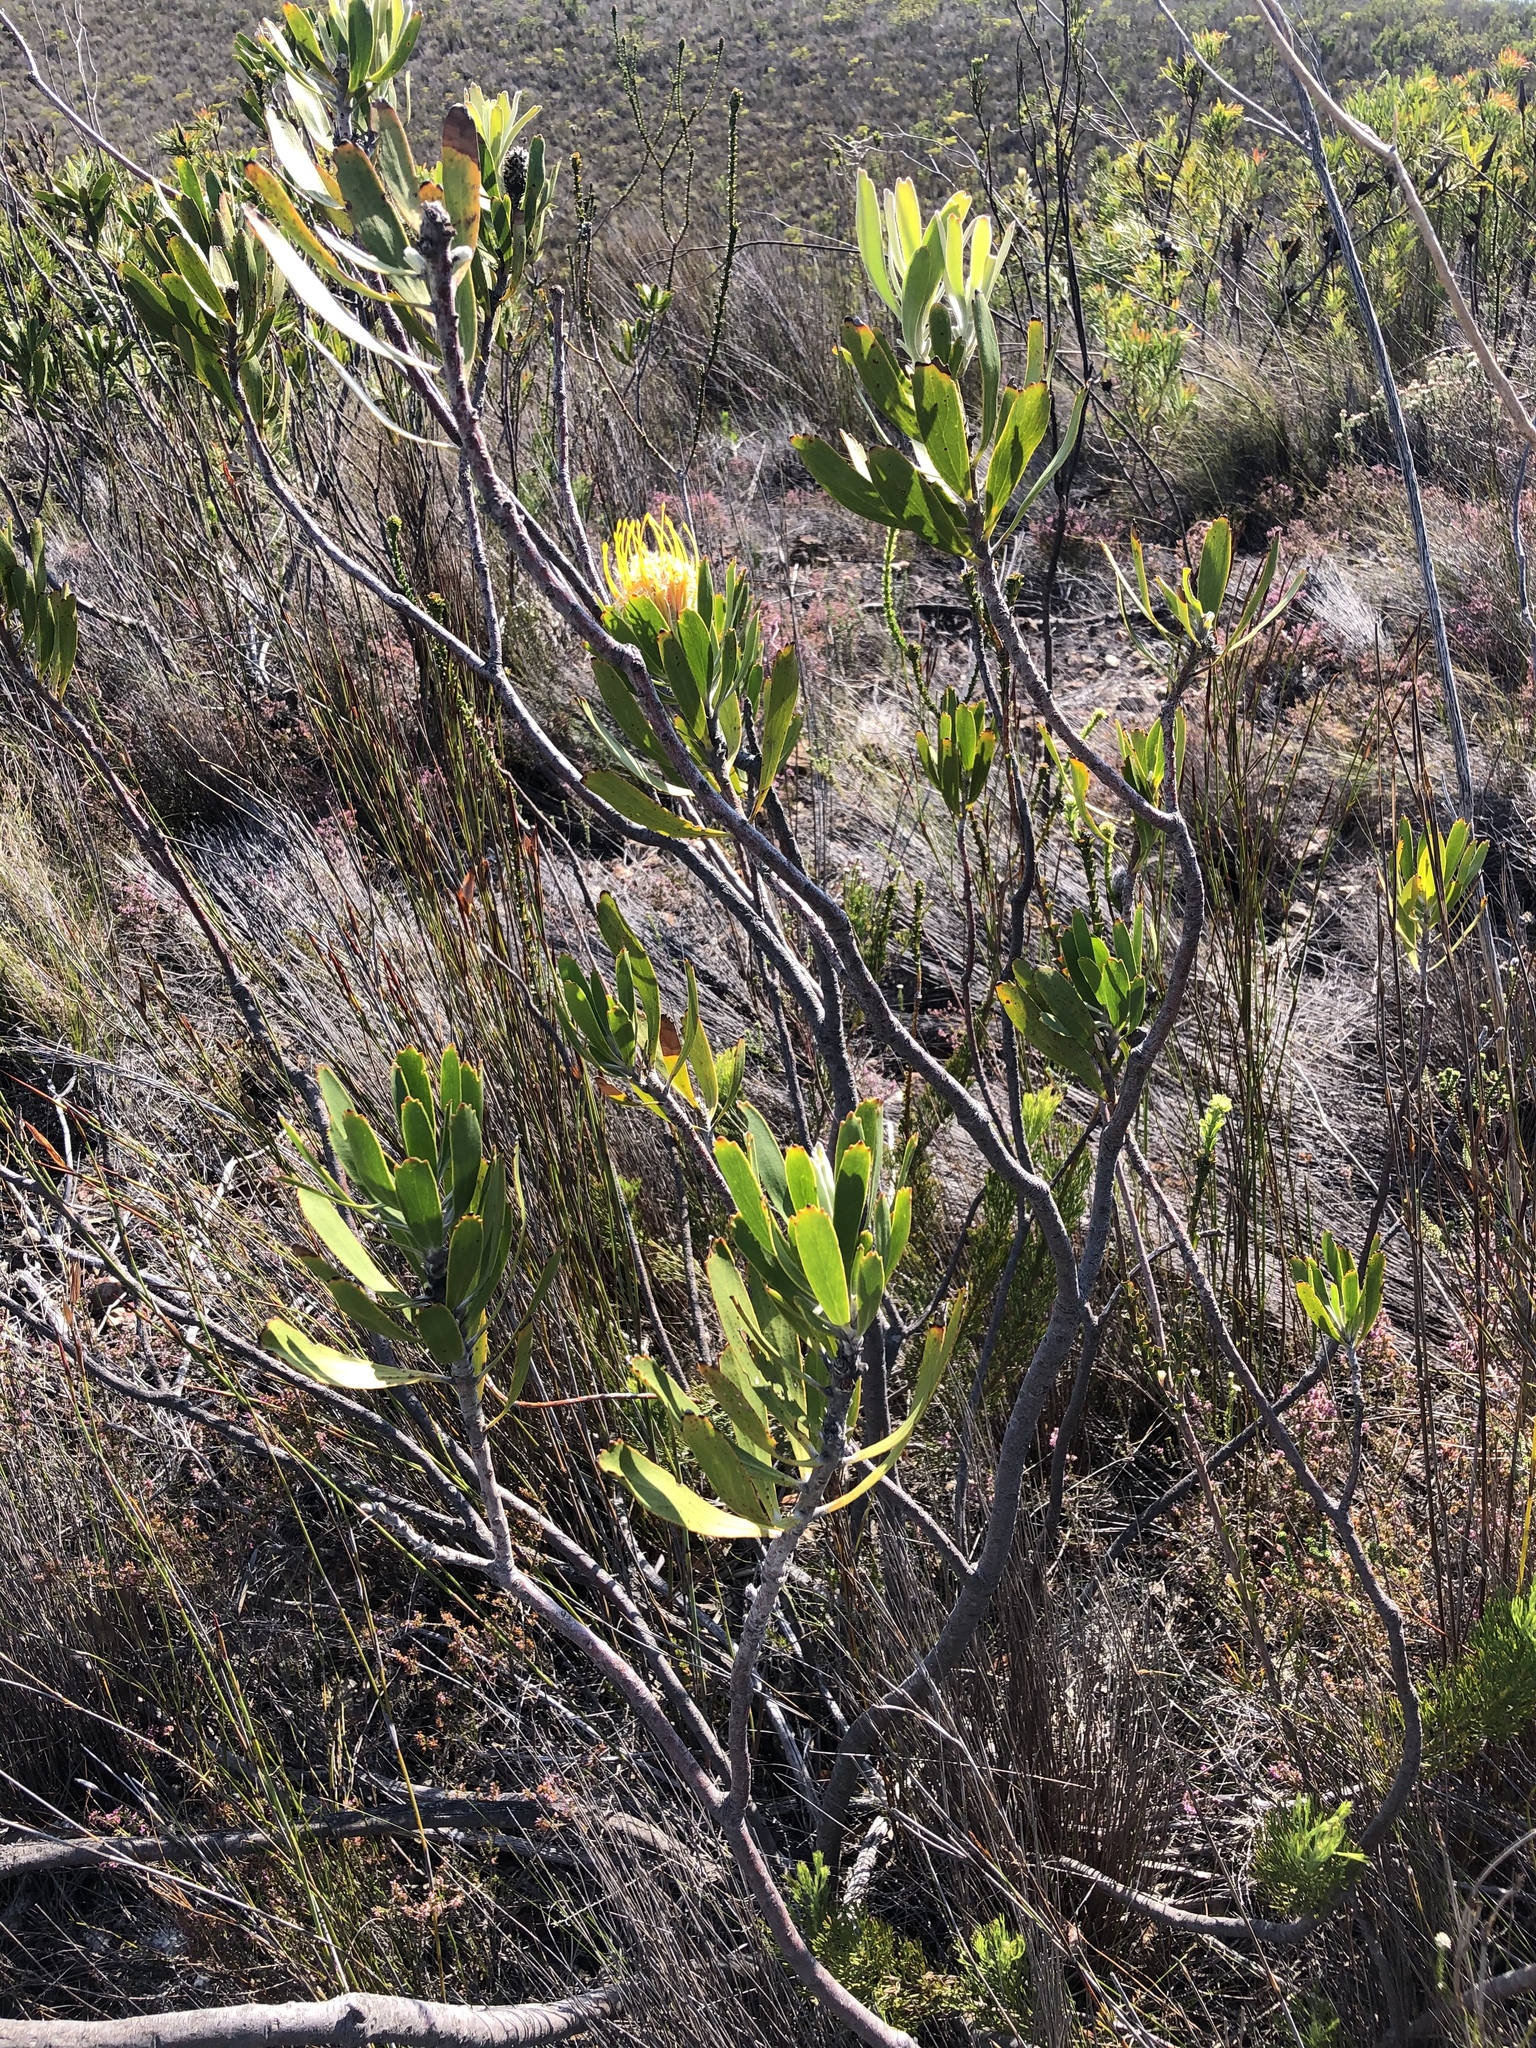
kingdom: Plantae
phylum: Tracheophyta
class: Magnoliopsida
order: Proteales
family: Proteaceae
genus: Leucospermum
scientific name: Leucospermum cuneiforme
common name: Common pincushion
